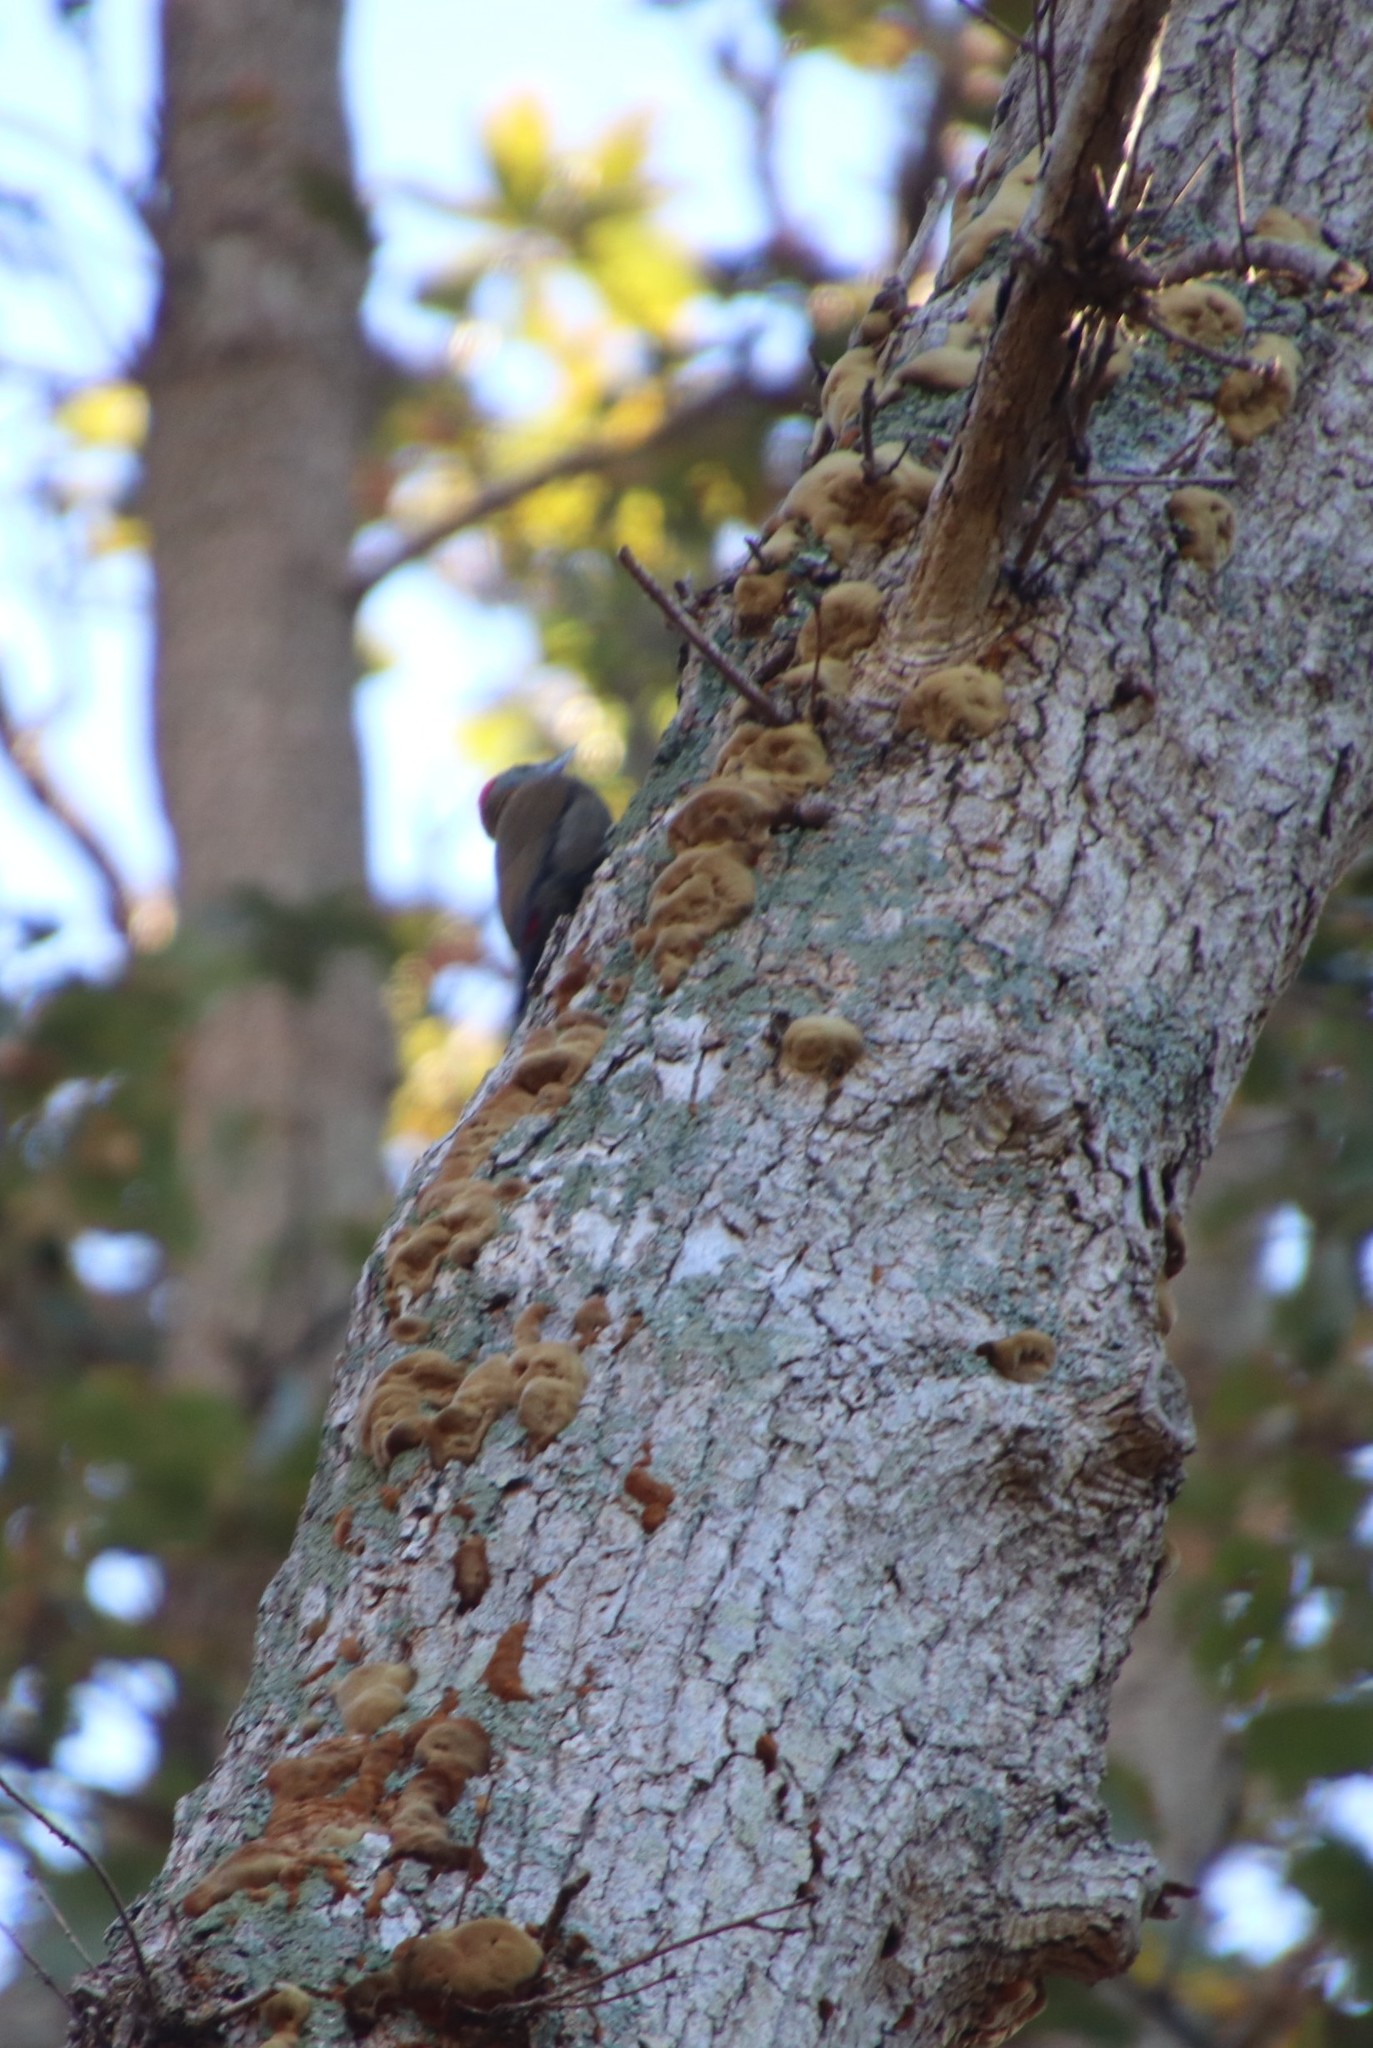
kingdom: Animalia
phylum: Chordata
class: Aves
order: Piciformes
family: Picidae
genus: Dendropicos
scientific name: Dendropicos griseocephalus
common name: Olive woodpecker
